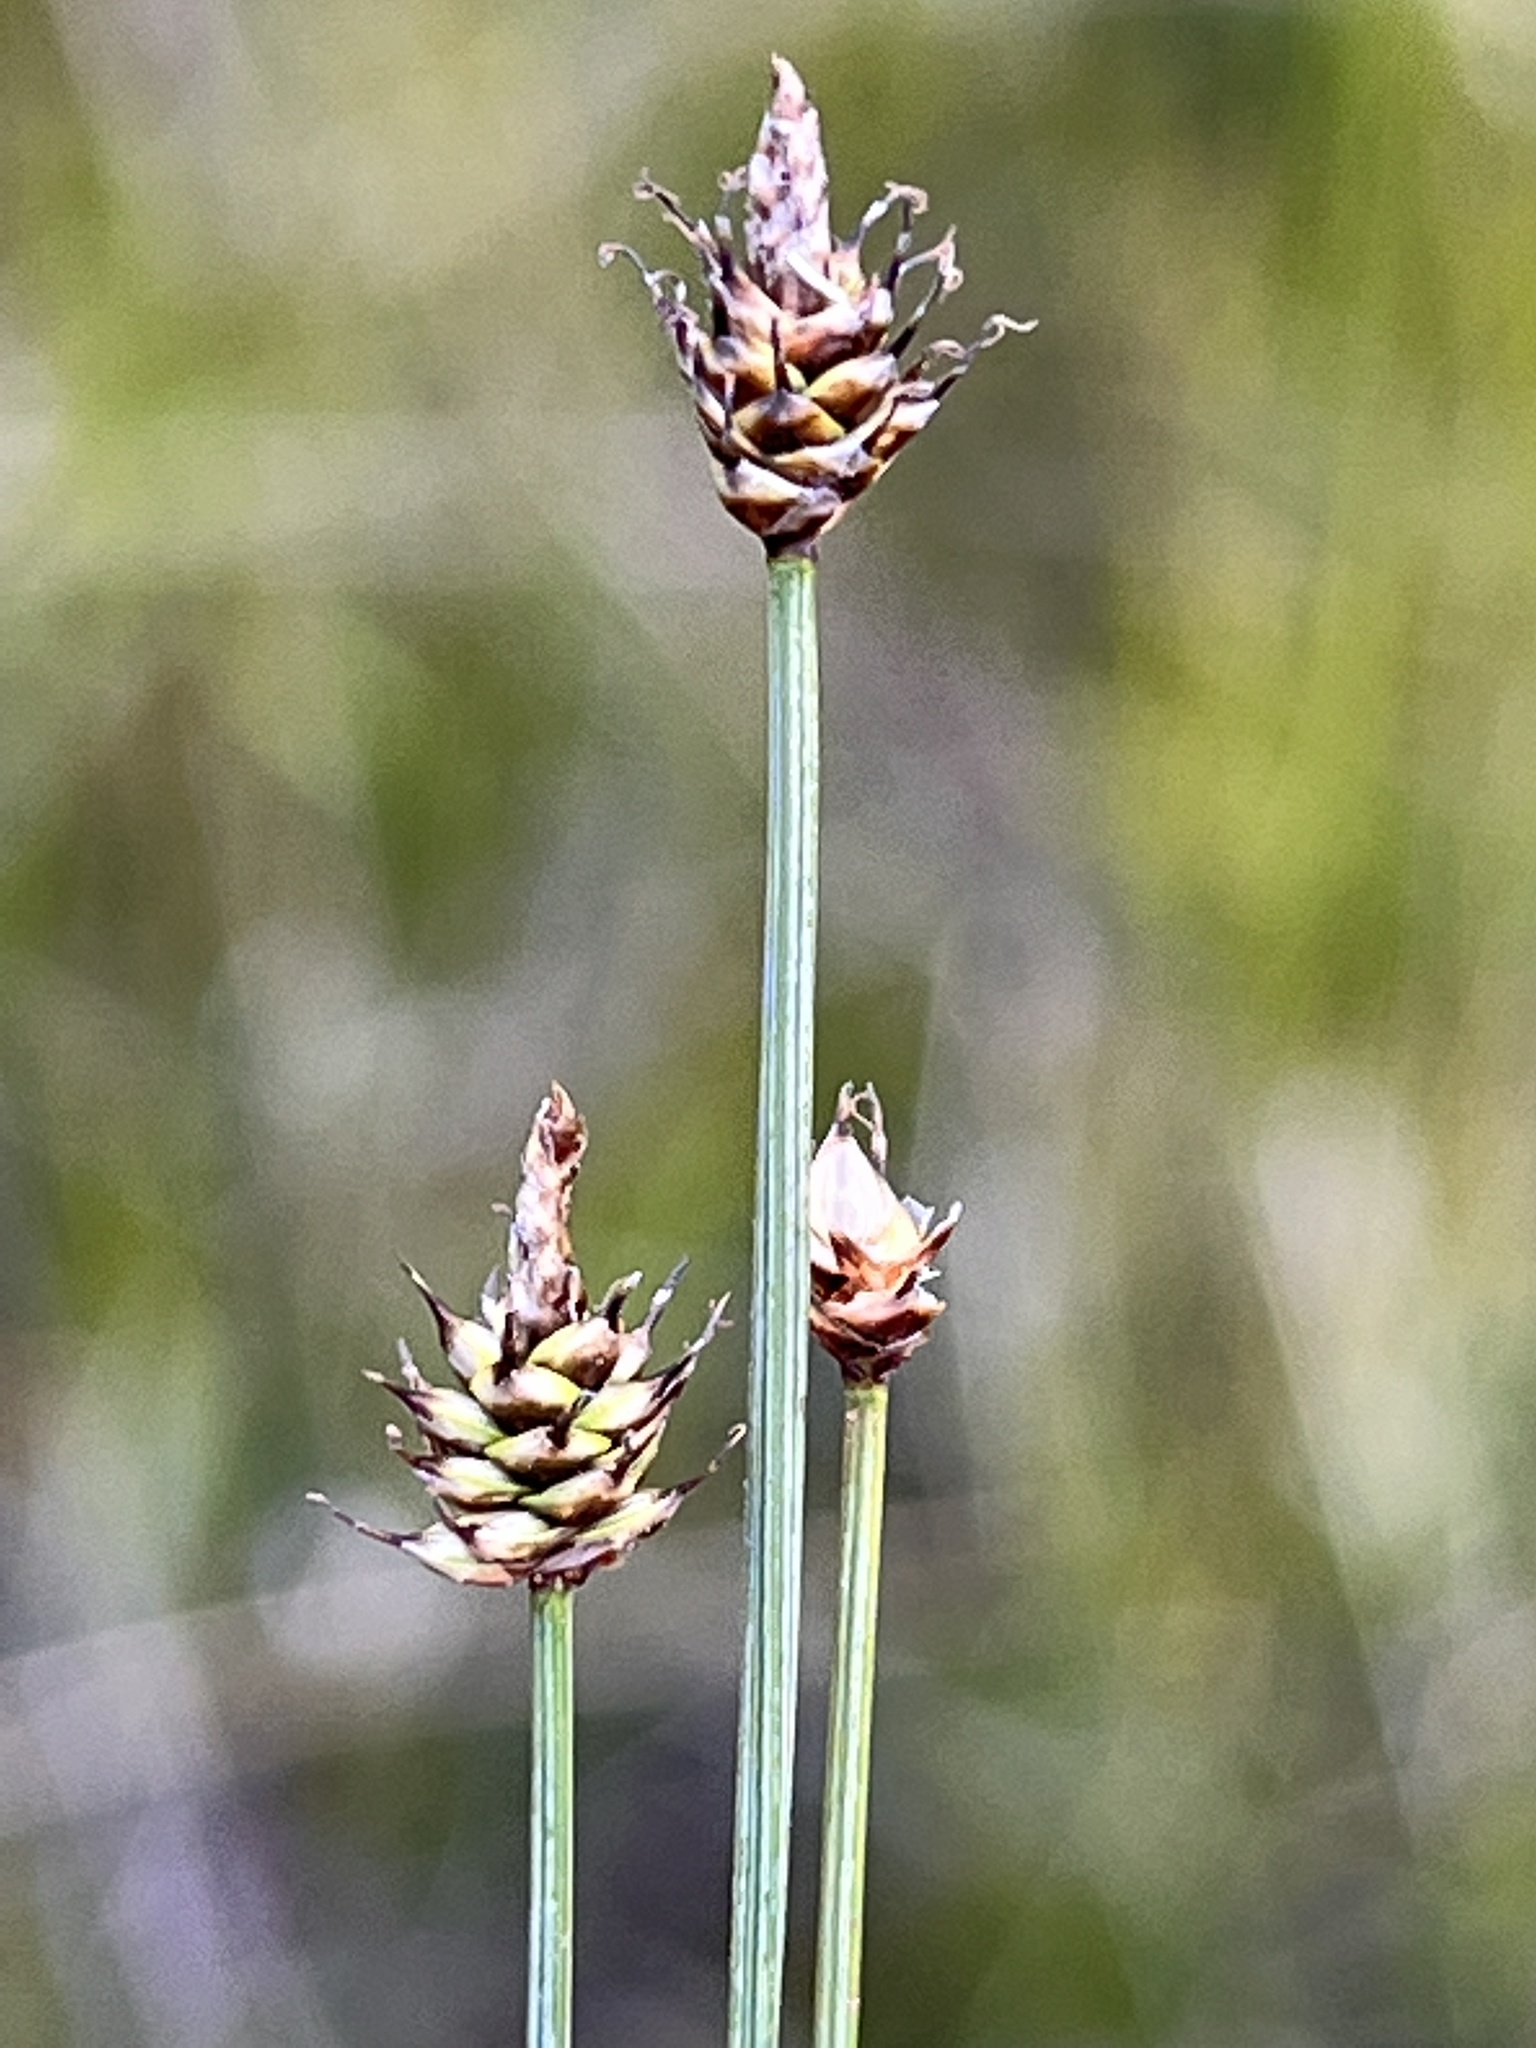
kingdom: Plantae
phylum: Tracheophyta
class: Liliopsida
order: Poales
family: Cyperaceae
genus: Carex
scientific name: Carex capitata
